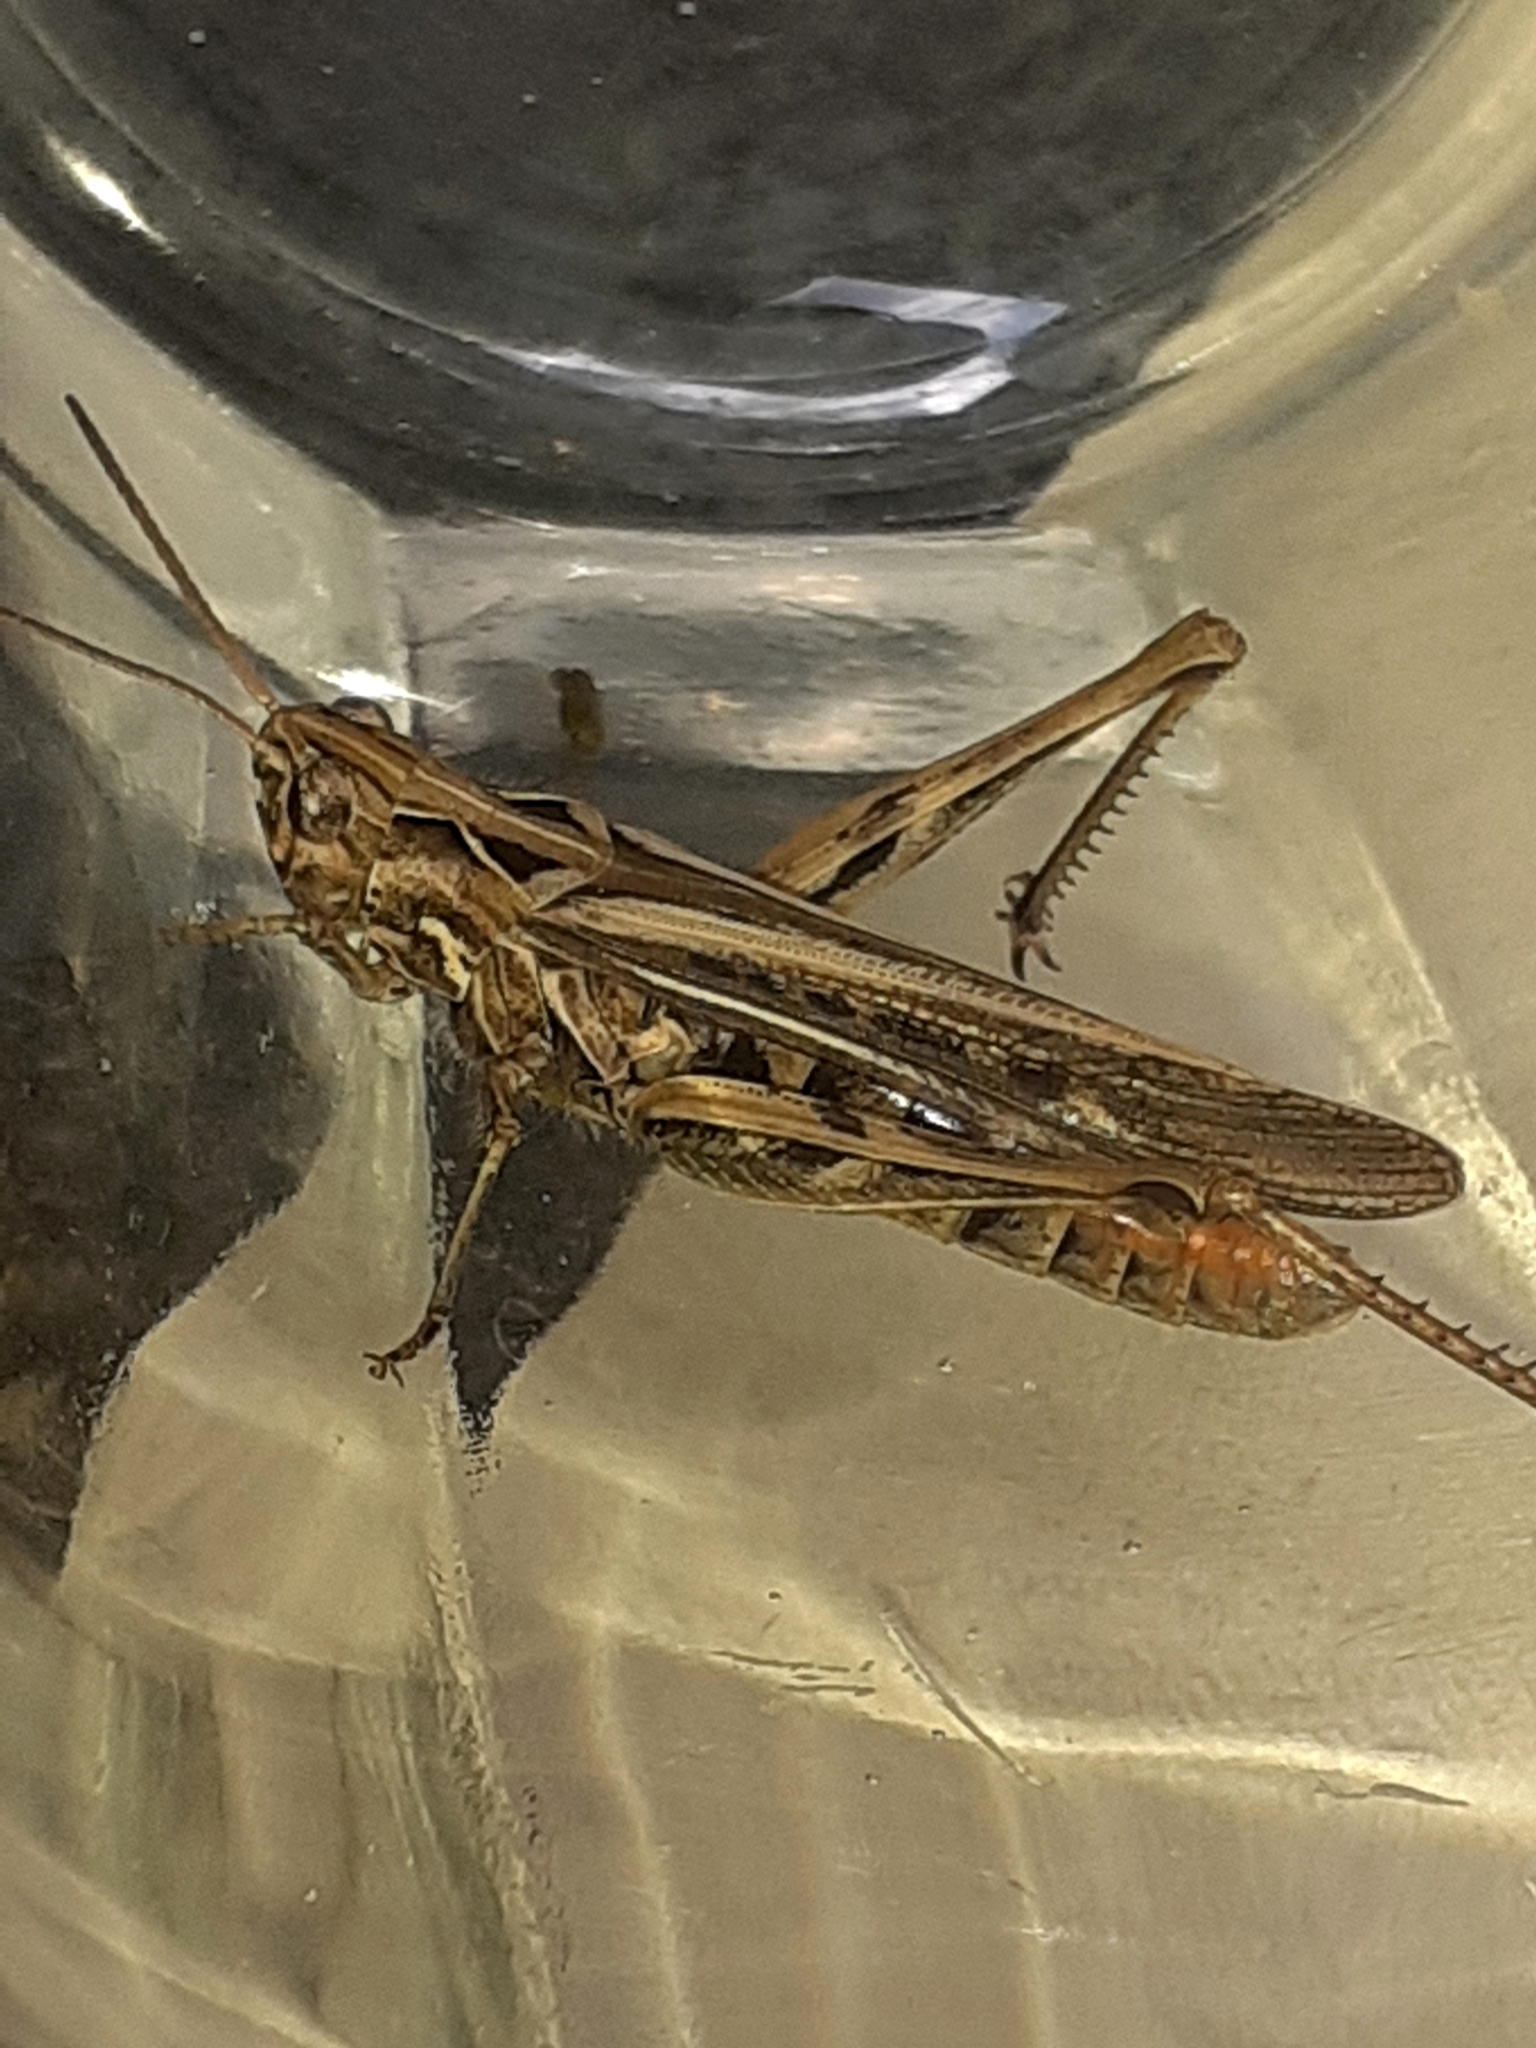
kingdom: Animalia
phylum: Arthropoda
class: Insecta
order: Orthoptera
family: Acrididae
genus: Chorthippus
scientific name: Chorthippus brunneus
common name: Field grasshopper
